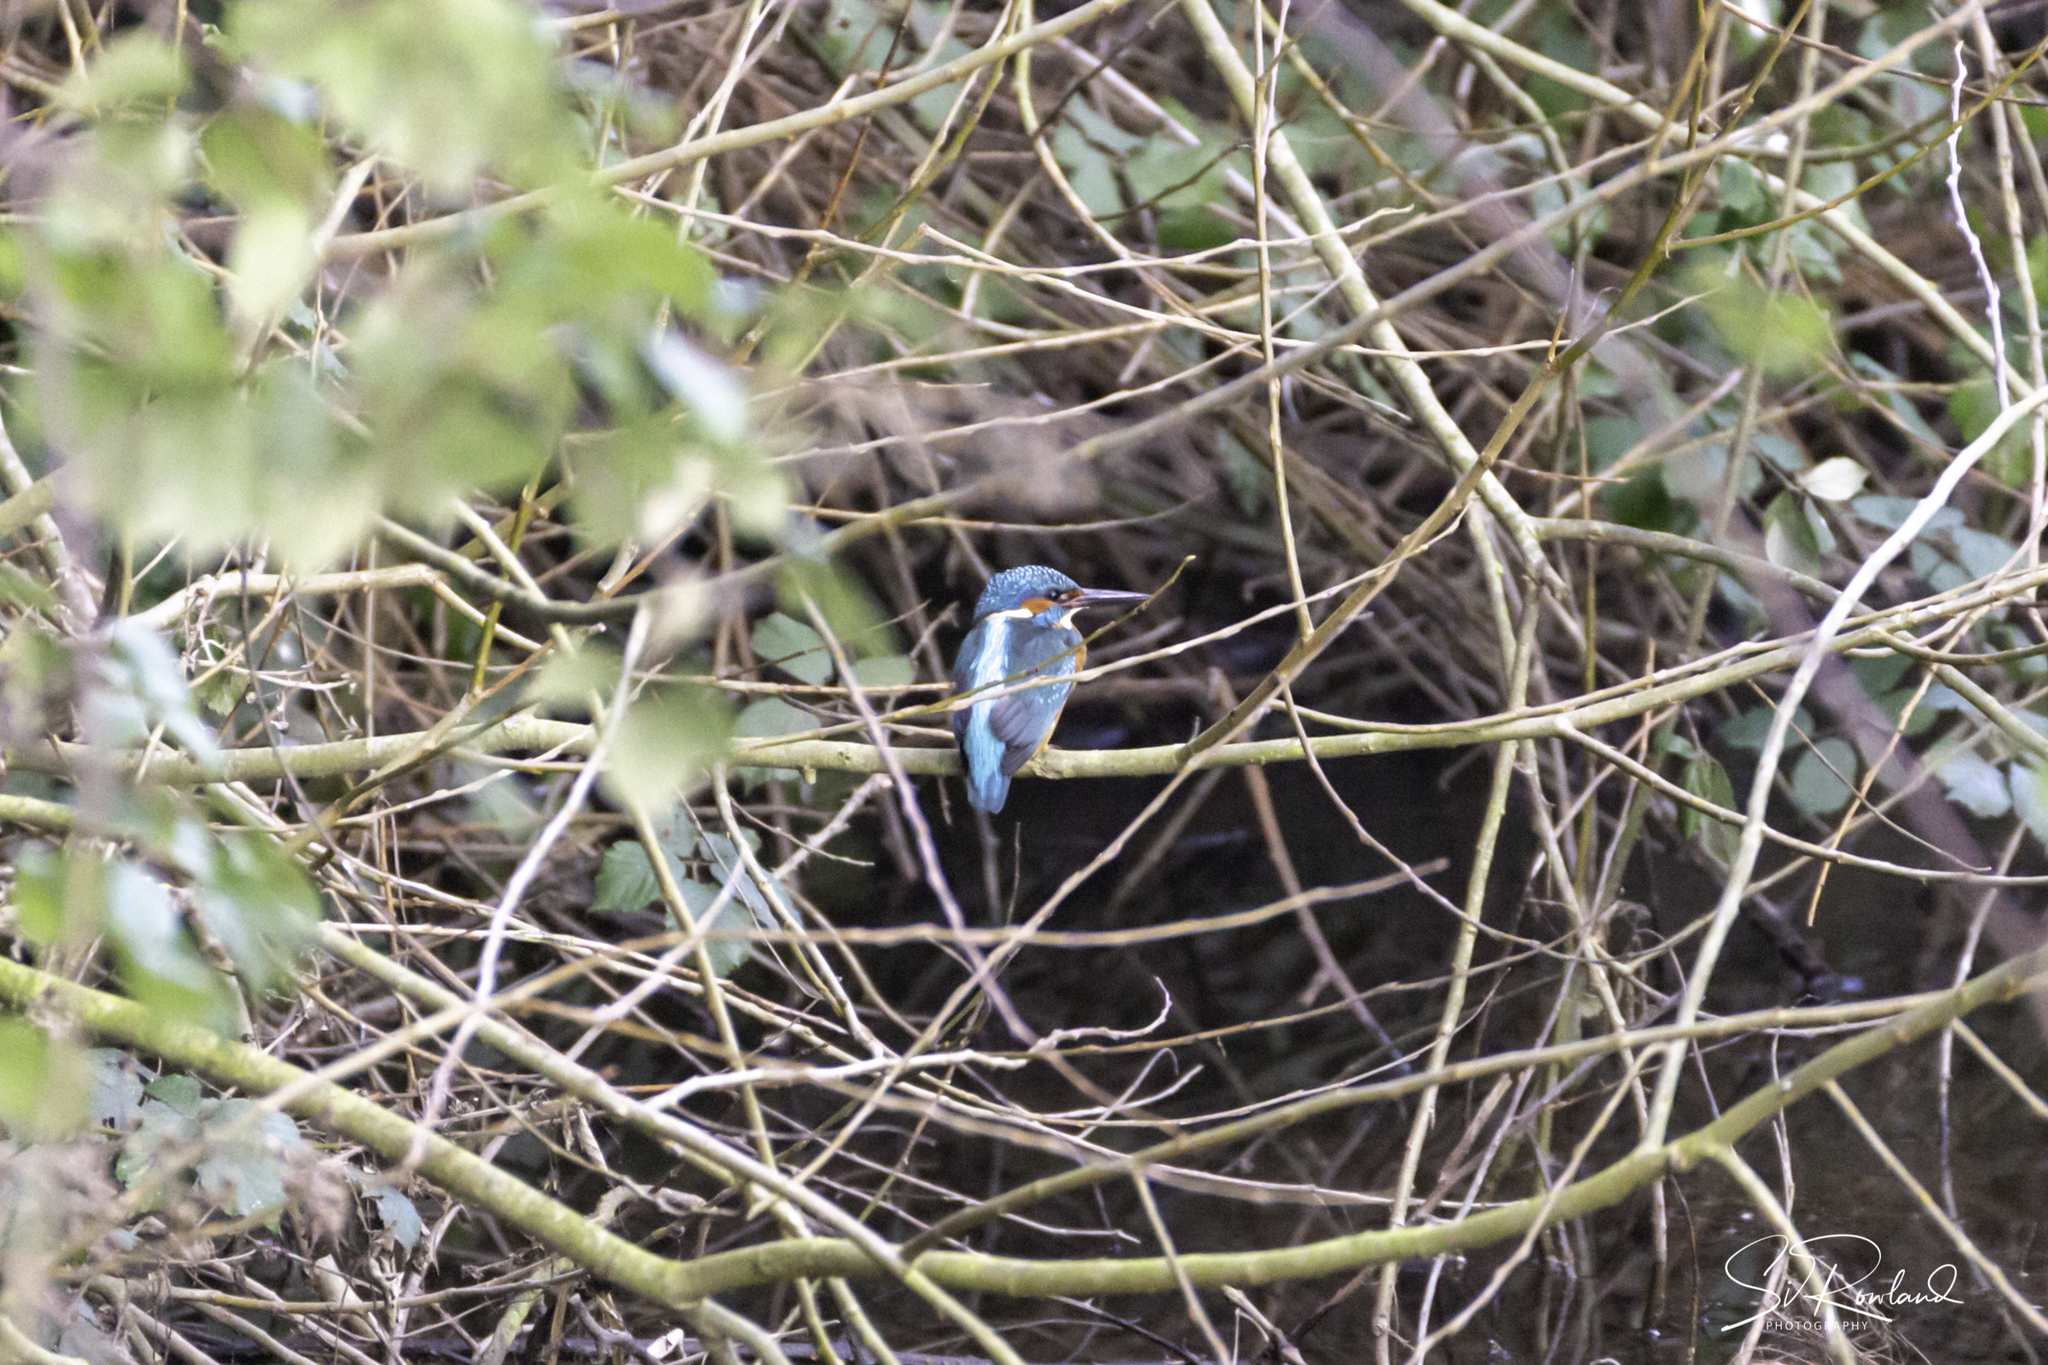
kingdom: Animalia
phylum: Chordata
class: Aves
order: Coraciiformes
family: Alcedinidae
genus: Alcedo
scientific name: Alcedo atthis
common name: Common kingfisher
